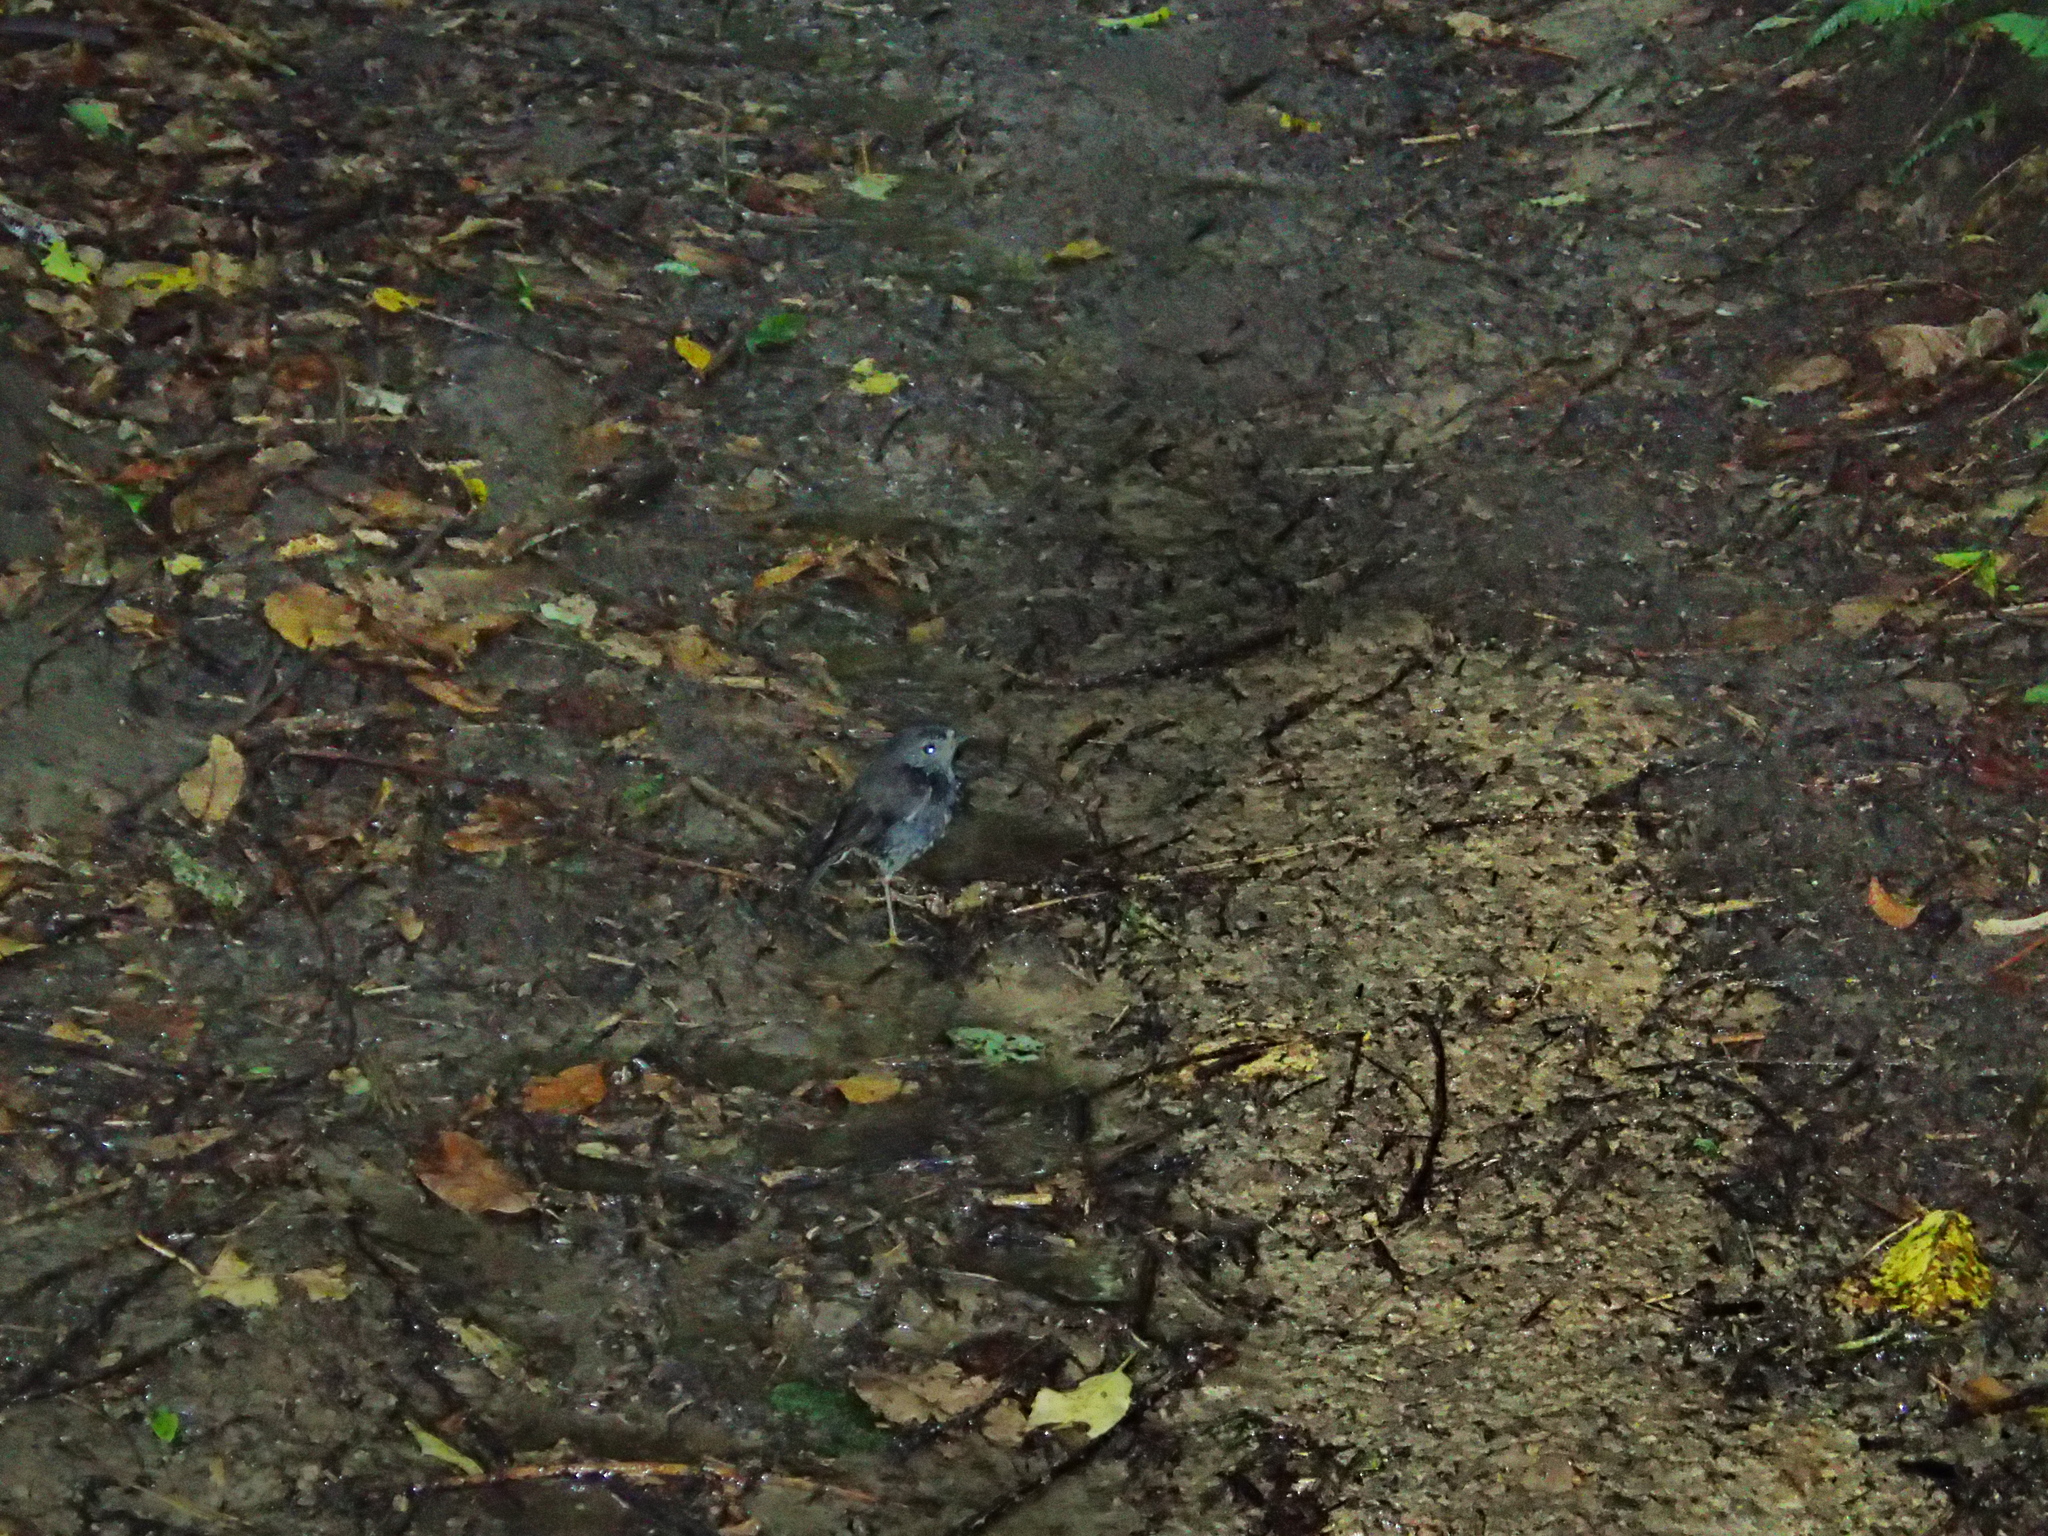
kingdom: Animalia
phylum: Chordata
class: Aves
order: Passeriformes
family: Petroicidae
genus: Petroica
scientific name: Petroica australis
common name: New zealand robin
